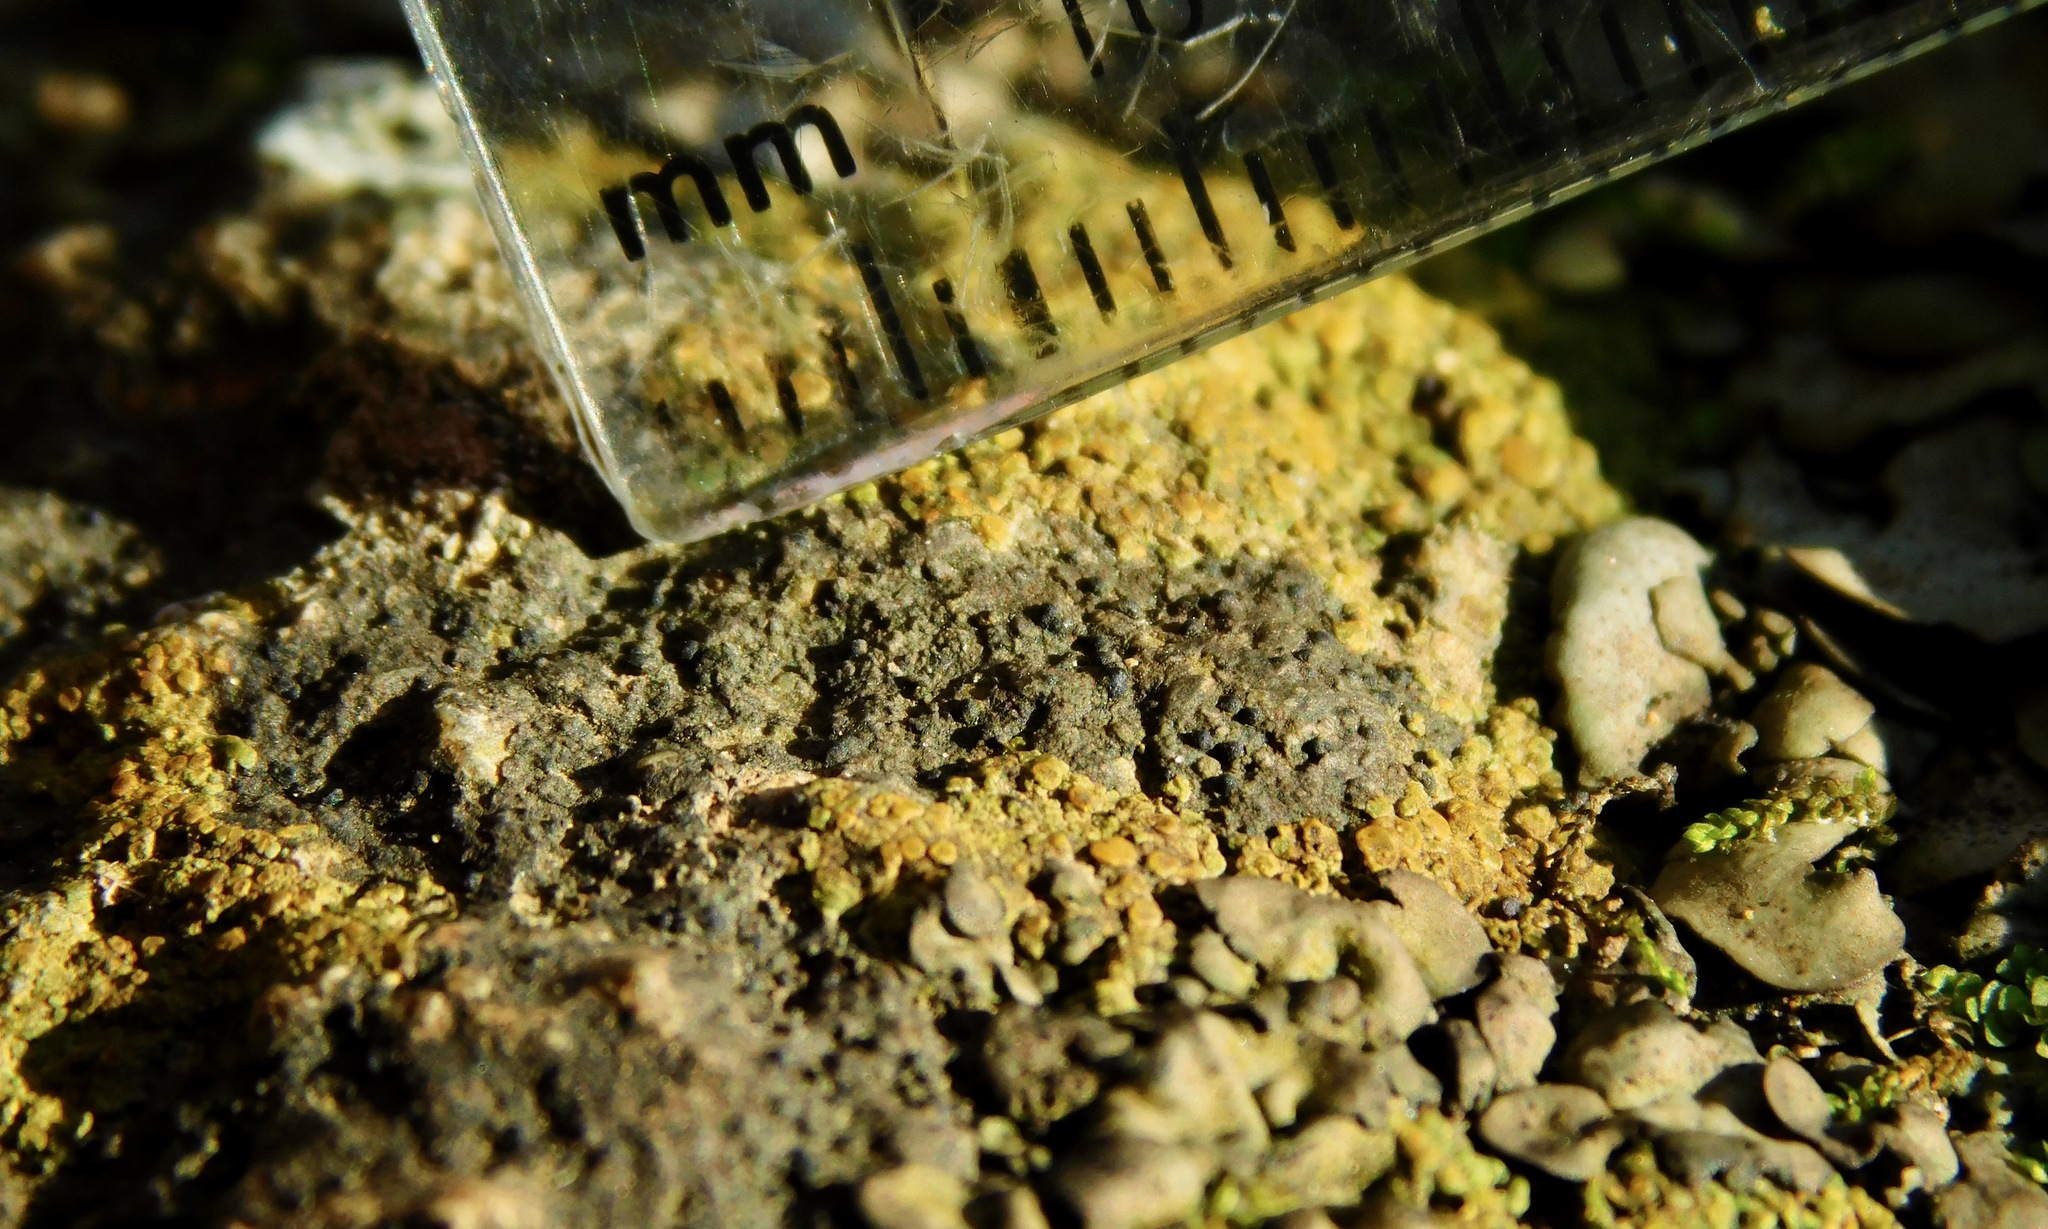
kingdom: Fungi
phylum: Ascomycota
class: Eurotiomycetes
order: Verrucariales
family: Verrucariaceae
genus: Staurothele
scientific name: Staurothele fissa
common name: Lakezone lichen
